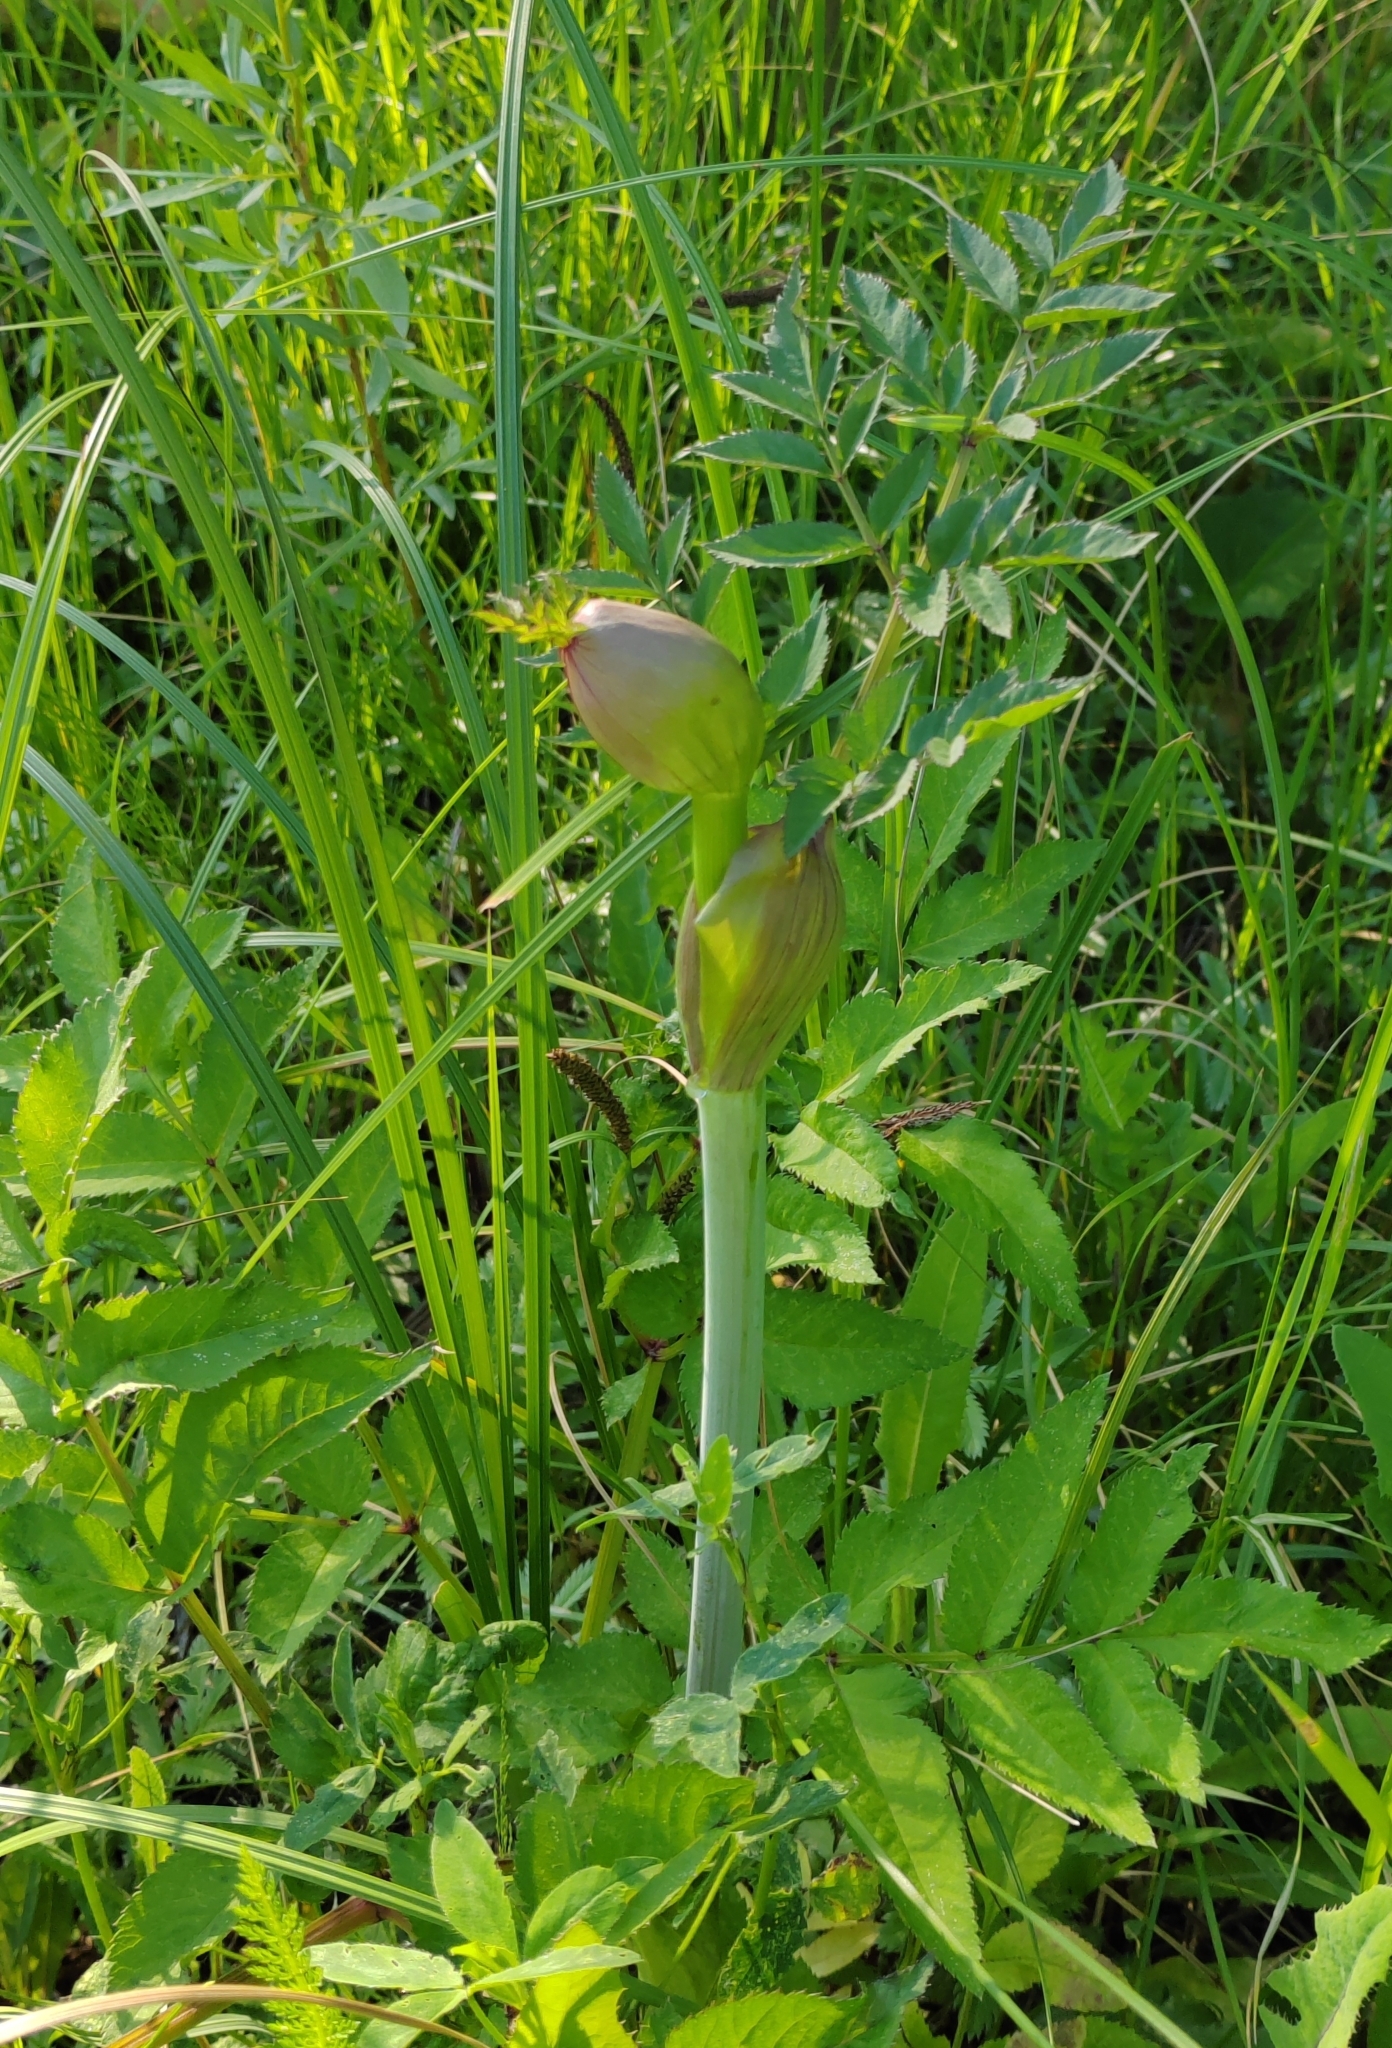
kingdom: Plantae
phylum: Tracheophyta
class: Magnoliopsida
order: Apiales
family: Apiaceae
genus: Angelica
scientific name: Angelica sylvestris
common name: Wild angelica
